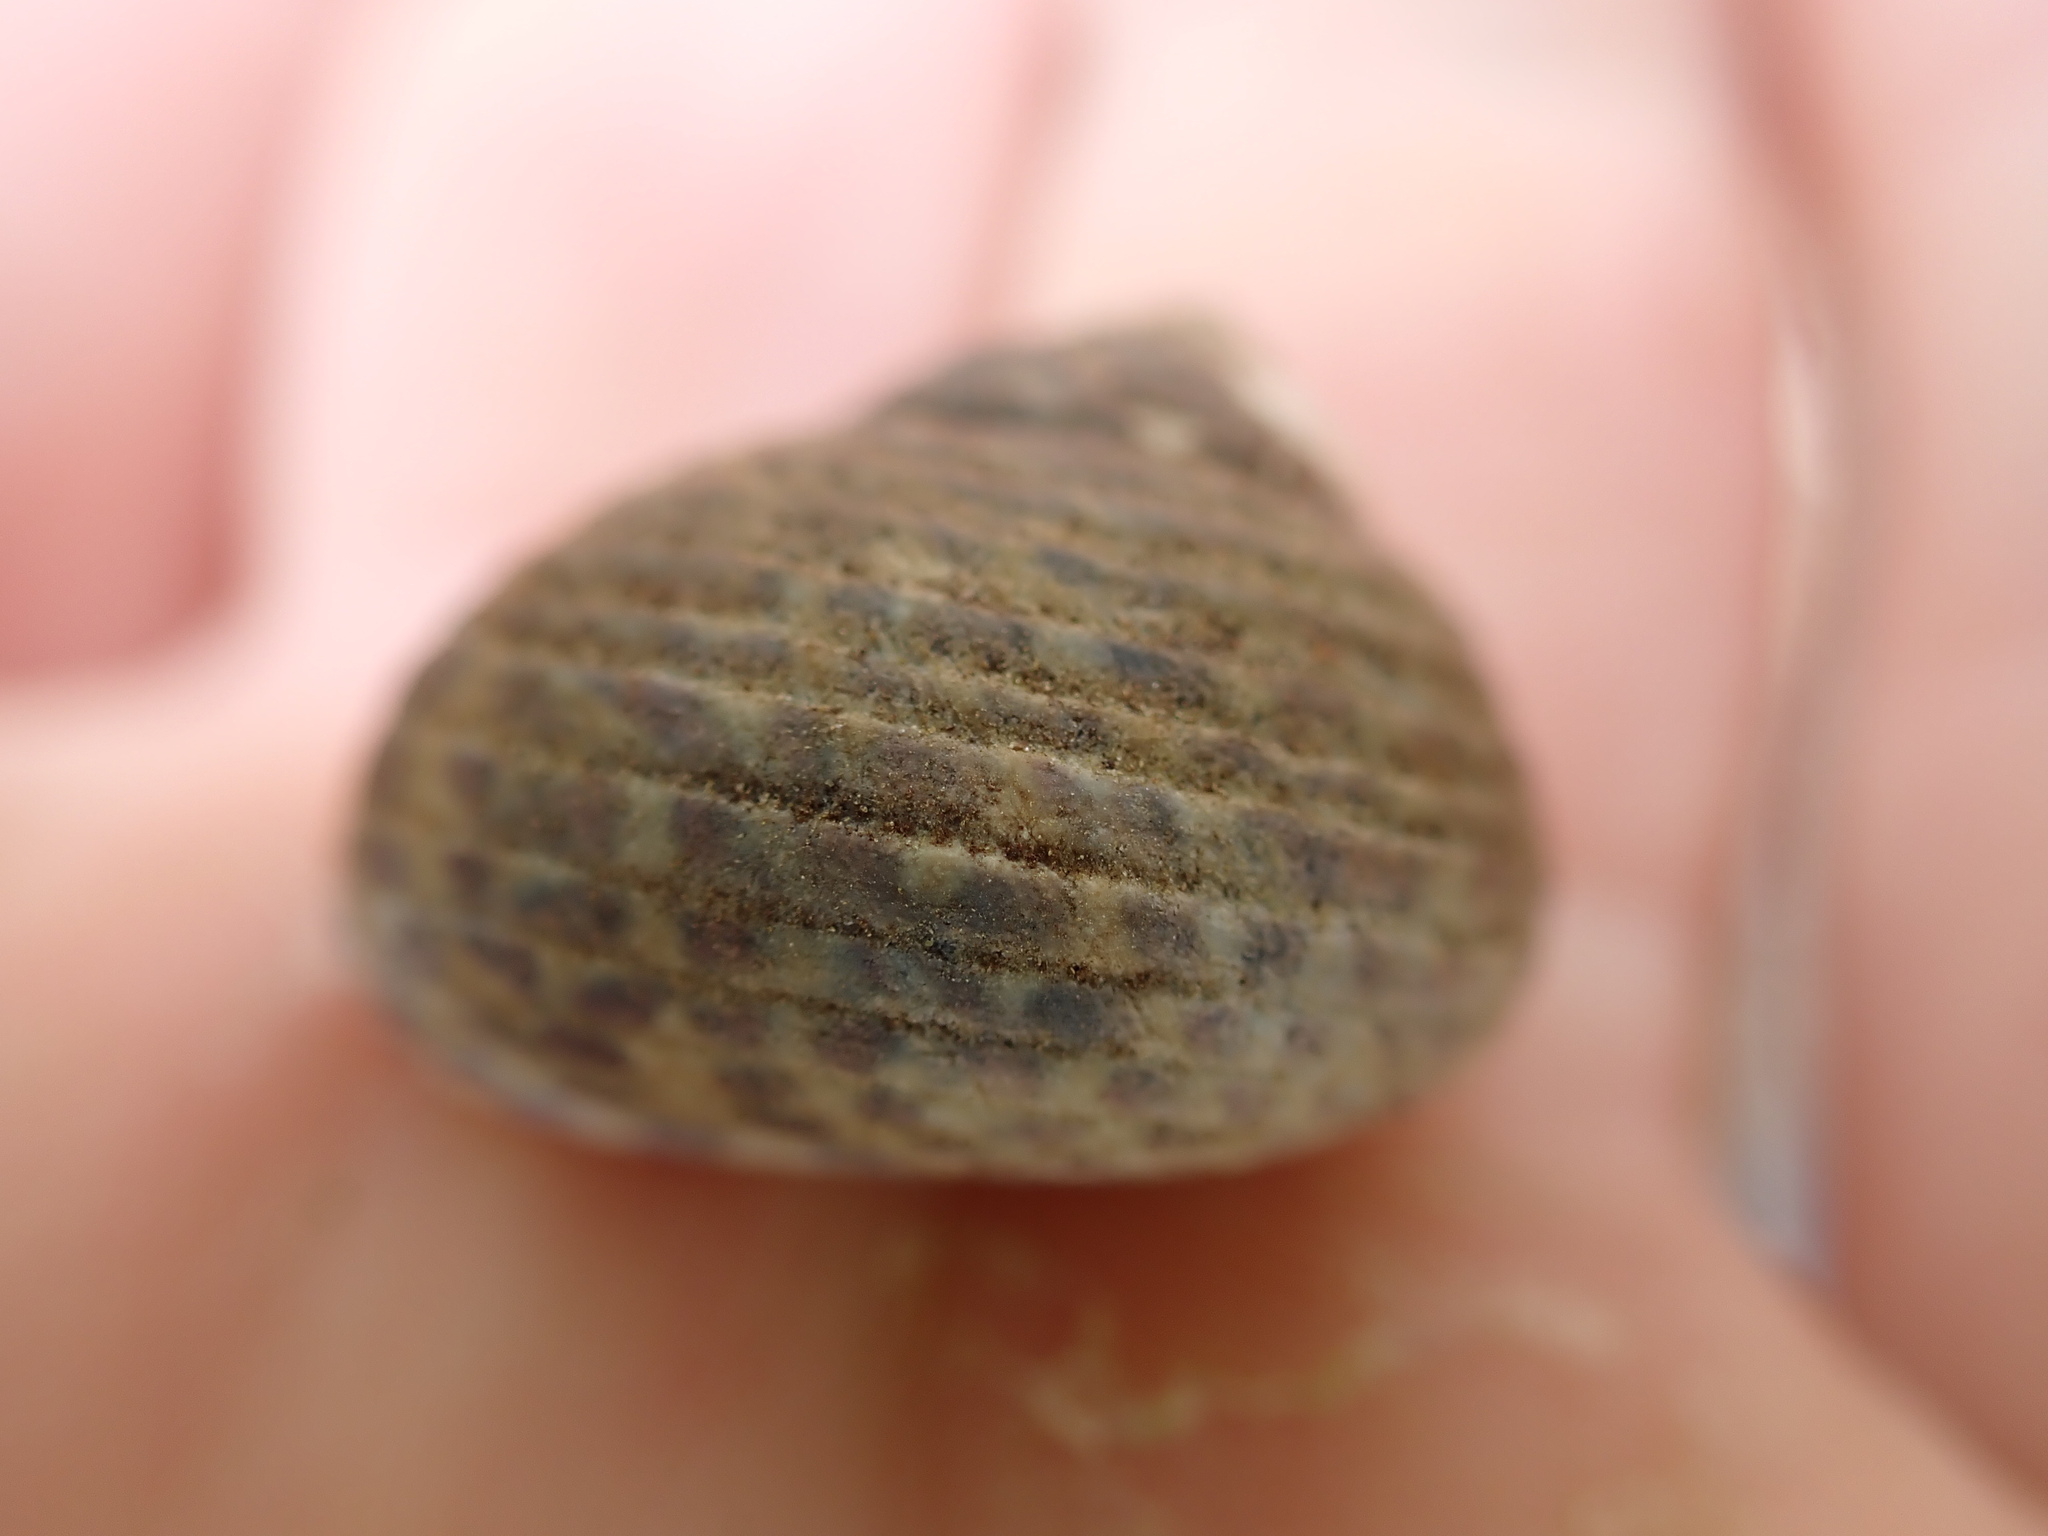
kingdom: Animalia
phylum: Mollusca
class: Gastropoda
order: Trochida
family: Trochidae
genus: Phorcus
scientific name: Phorcus turbinatus
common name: Turbinate monodont
